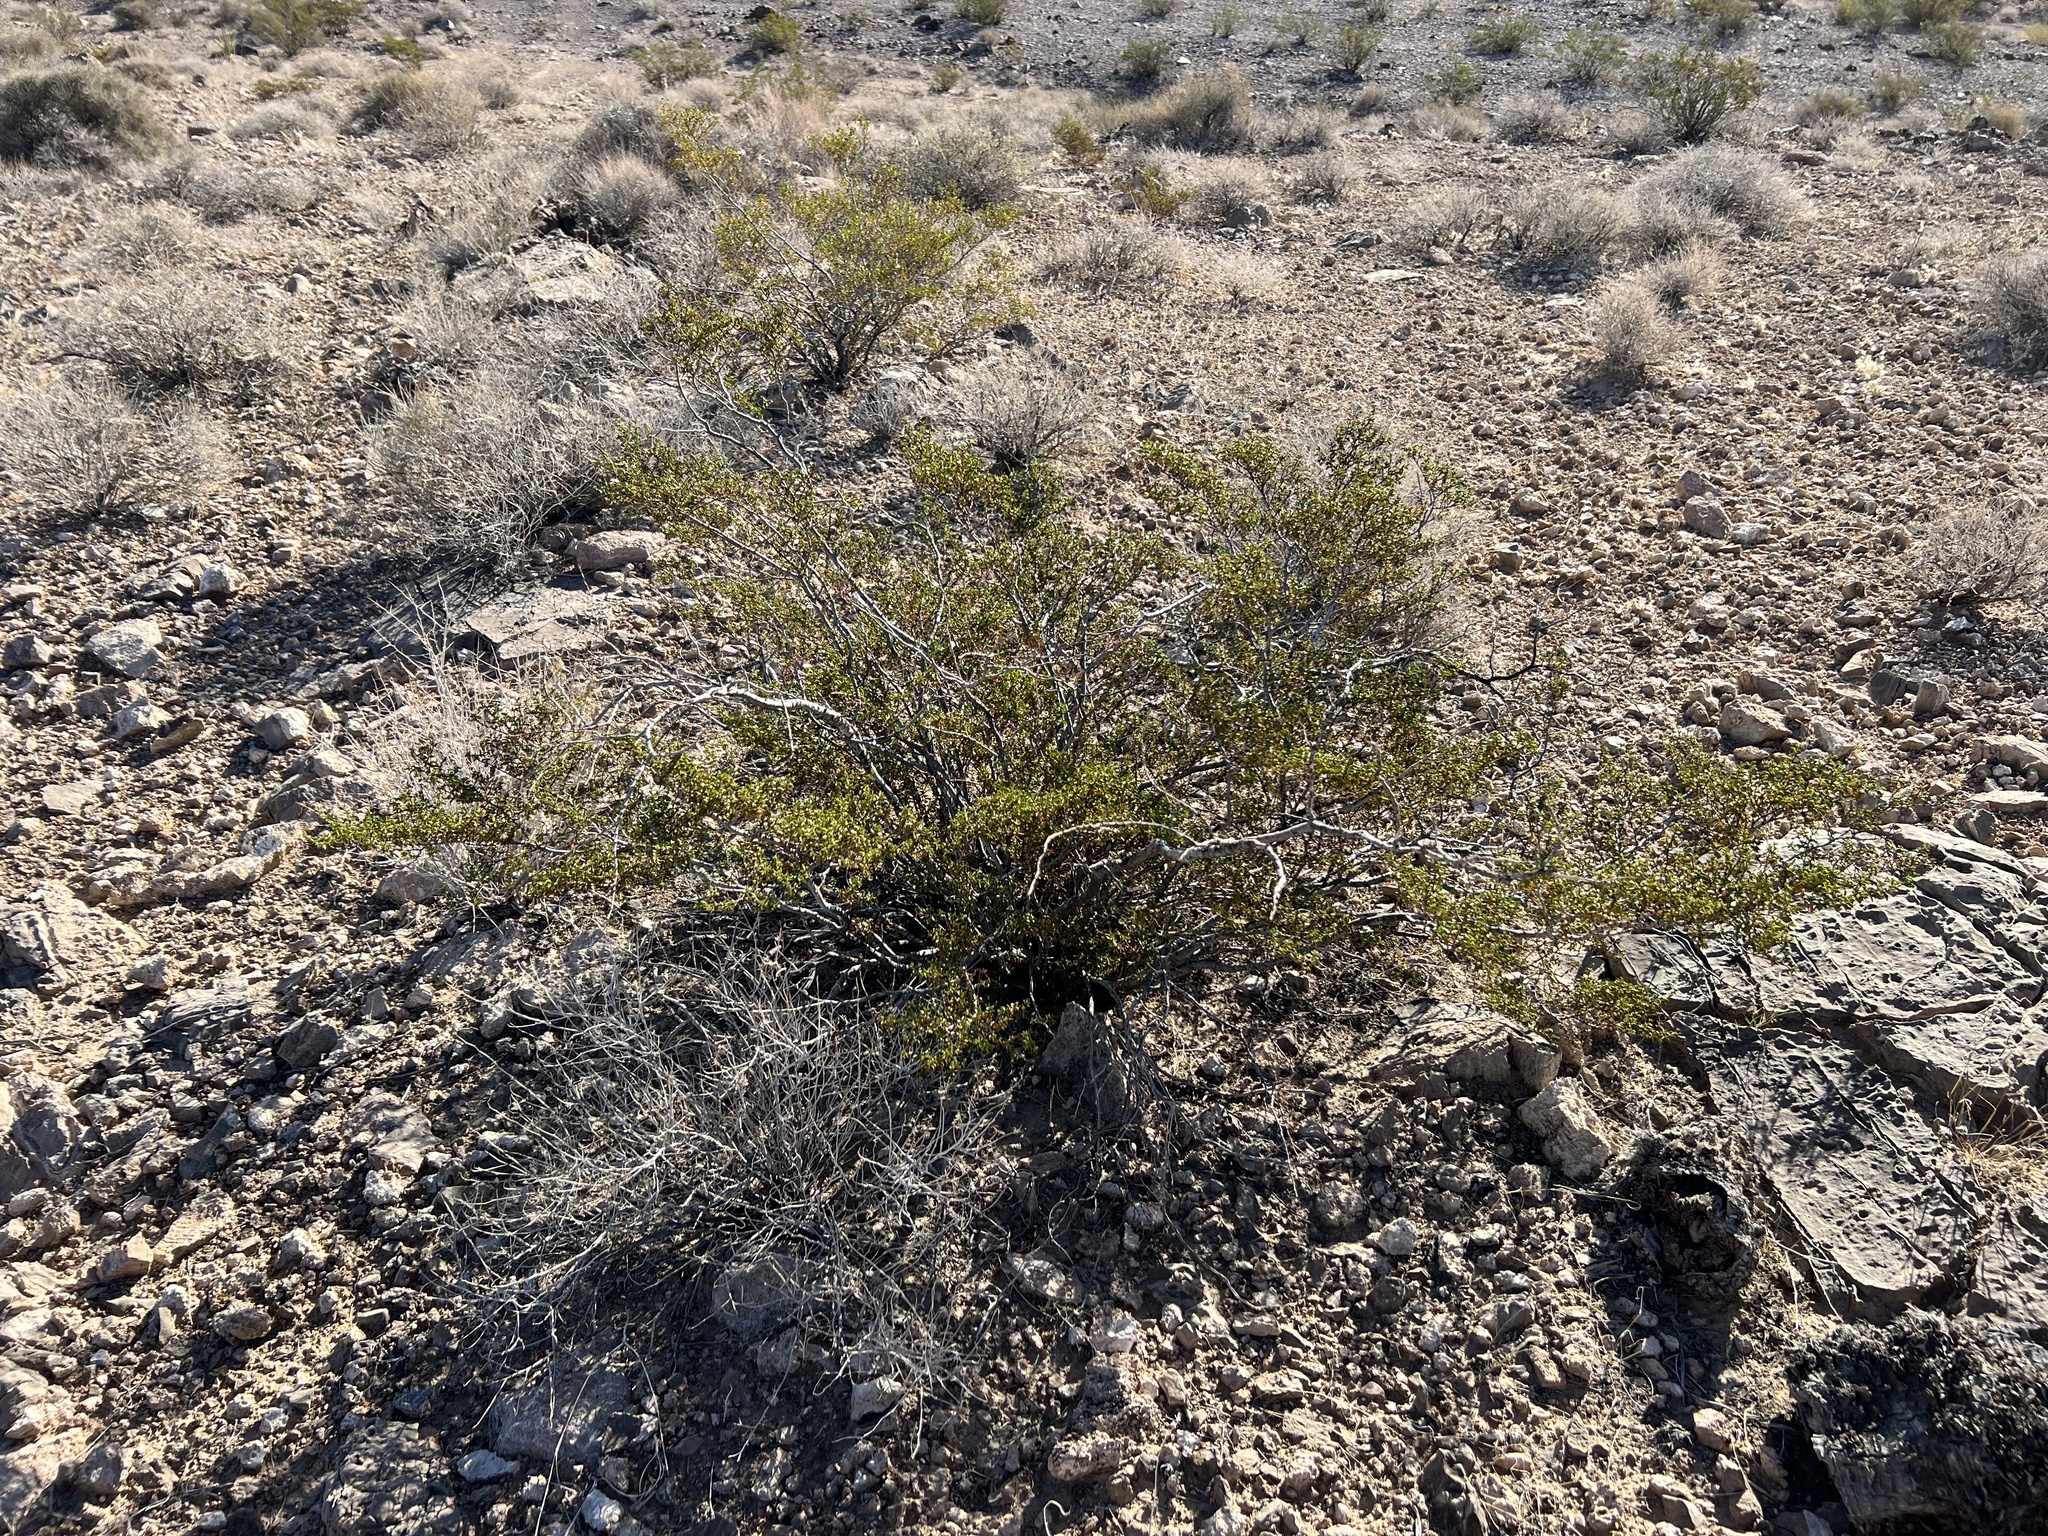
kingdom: Plantae
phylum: Tracheophyta
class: Magnoliopsida
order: Zygophyllales
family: Zygophyllaceae
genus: Larrea
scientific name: Larrea tridentata
